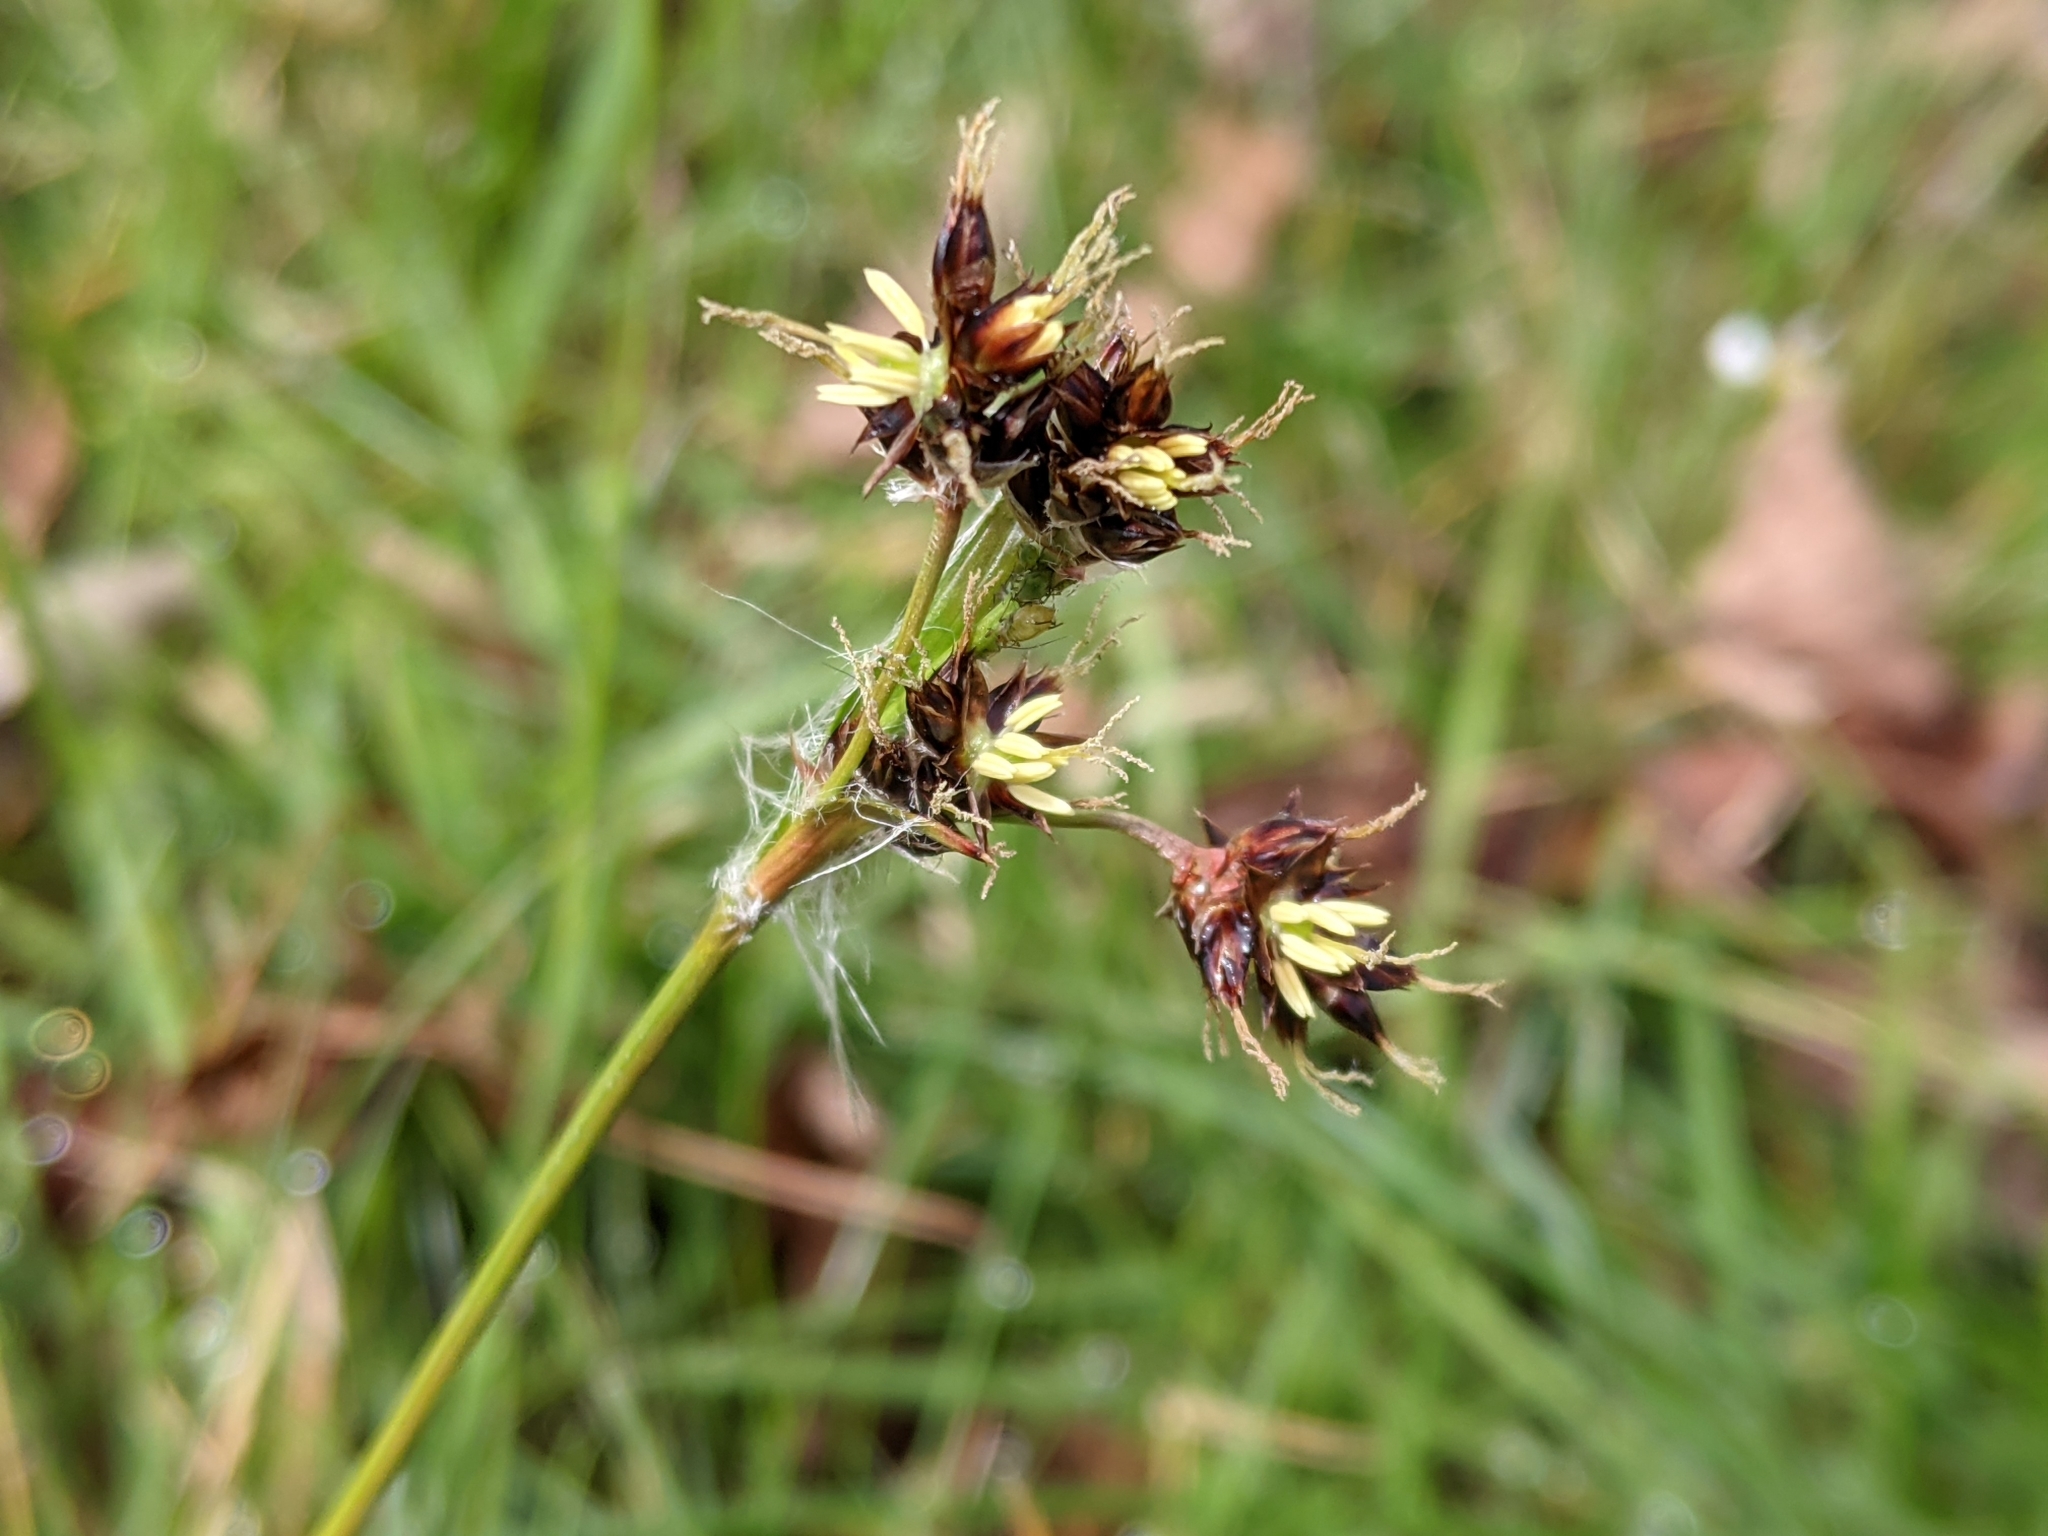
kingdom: Plantae
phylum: Tracheophyta
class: Liliopsida
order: Poales
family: Juncaceae
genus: Luzula
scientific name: Luzula campestris
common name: Field wood-rush
